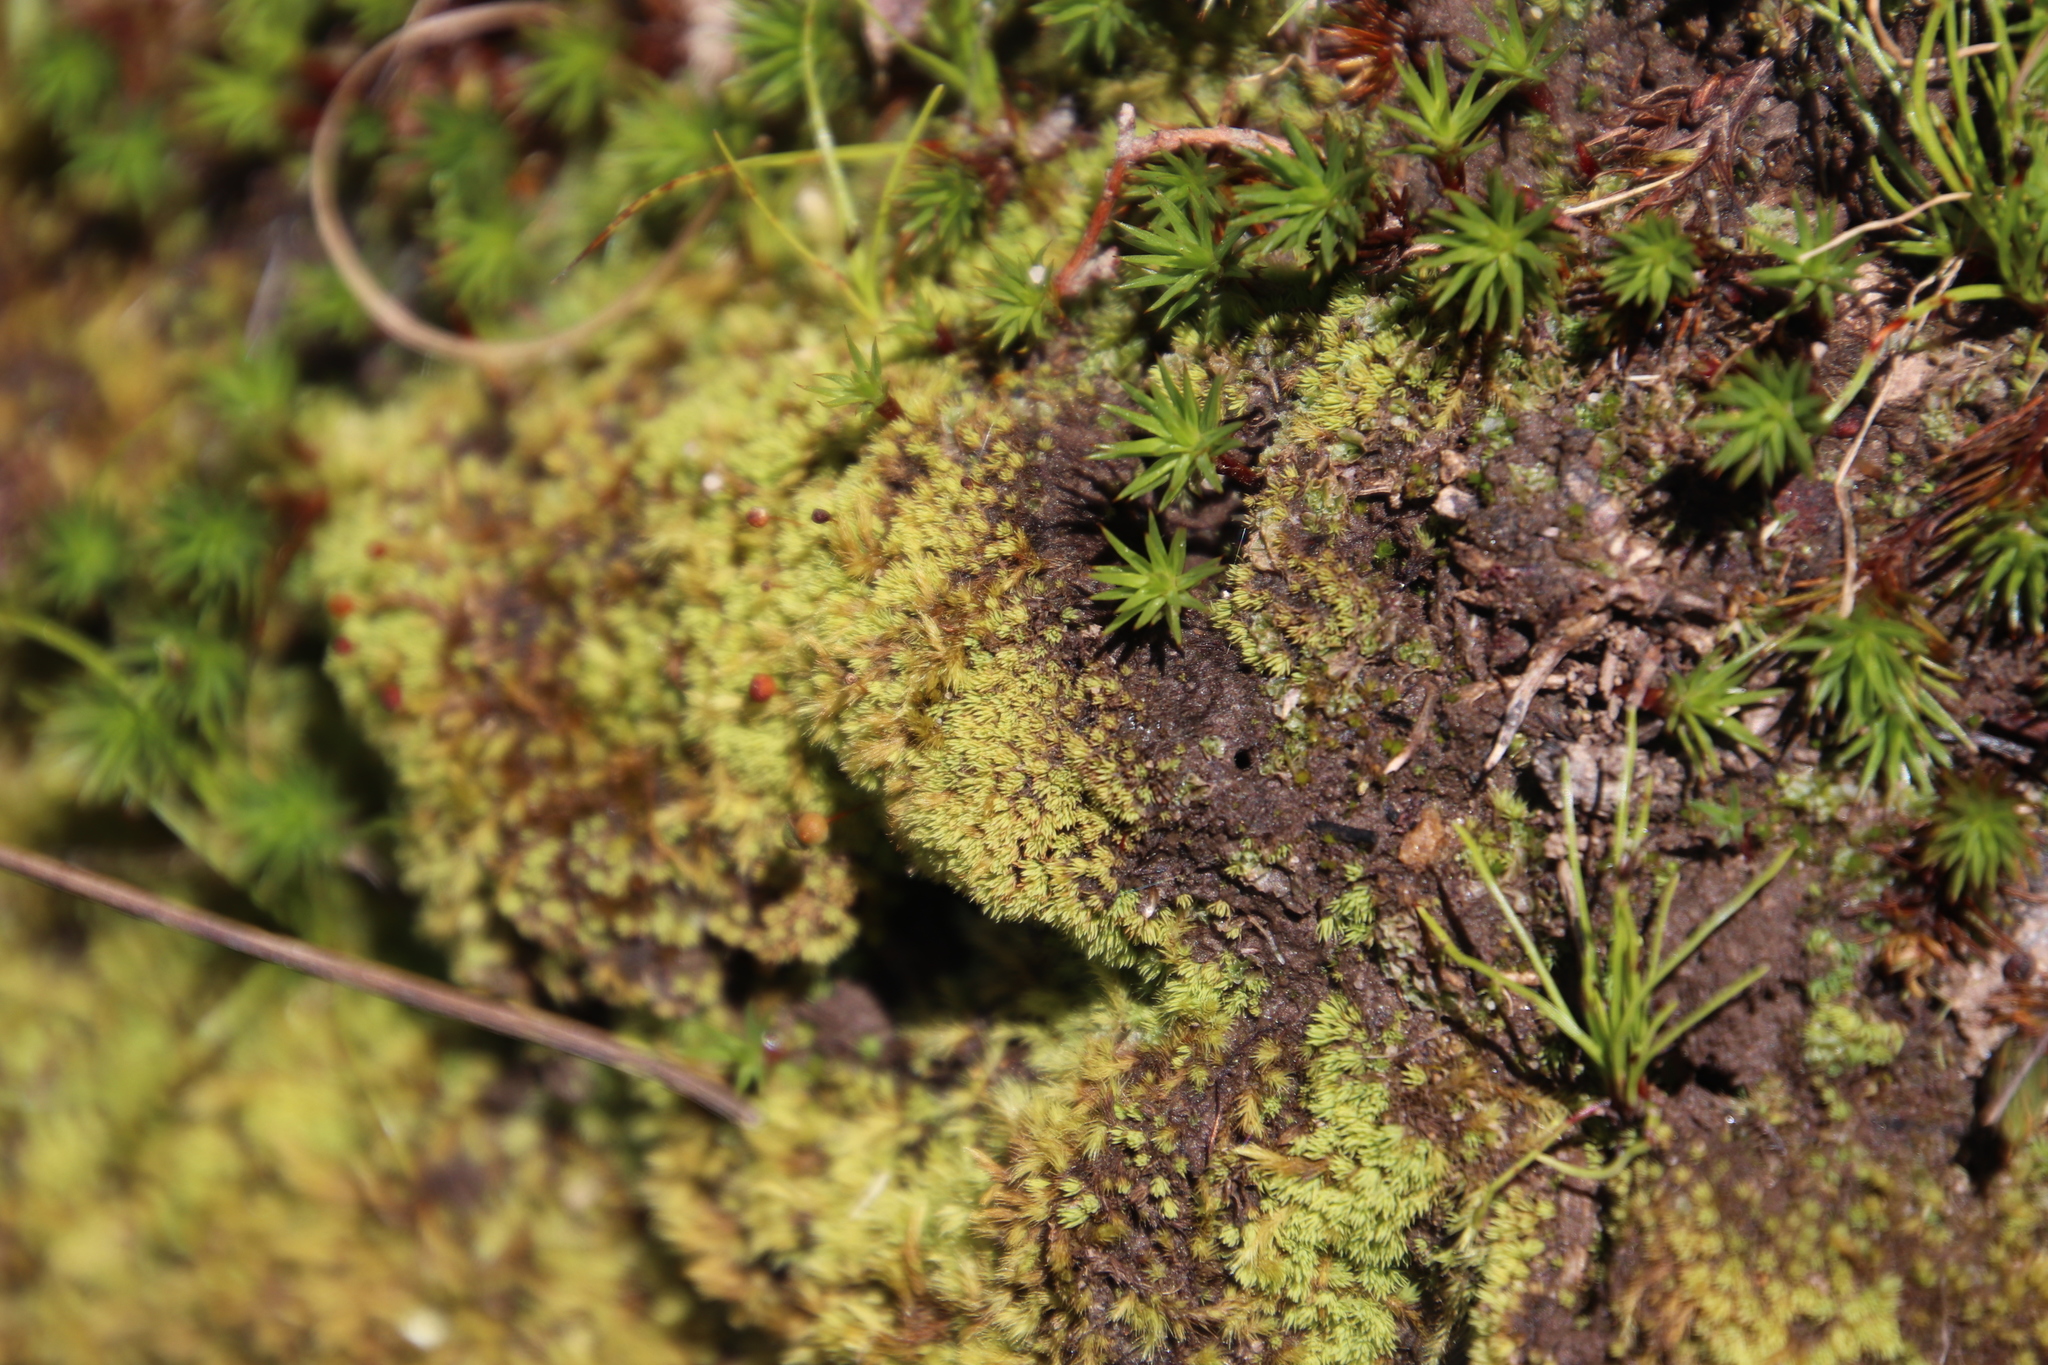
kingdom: Plantae
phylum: Bryophyta
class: Polytrichopsida
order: Polytrichales
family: Polytrichaceae
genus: Pogonatum
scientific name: Pogonatum capense
